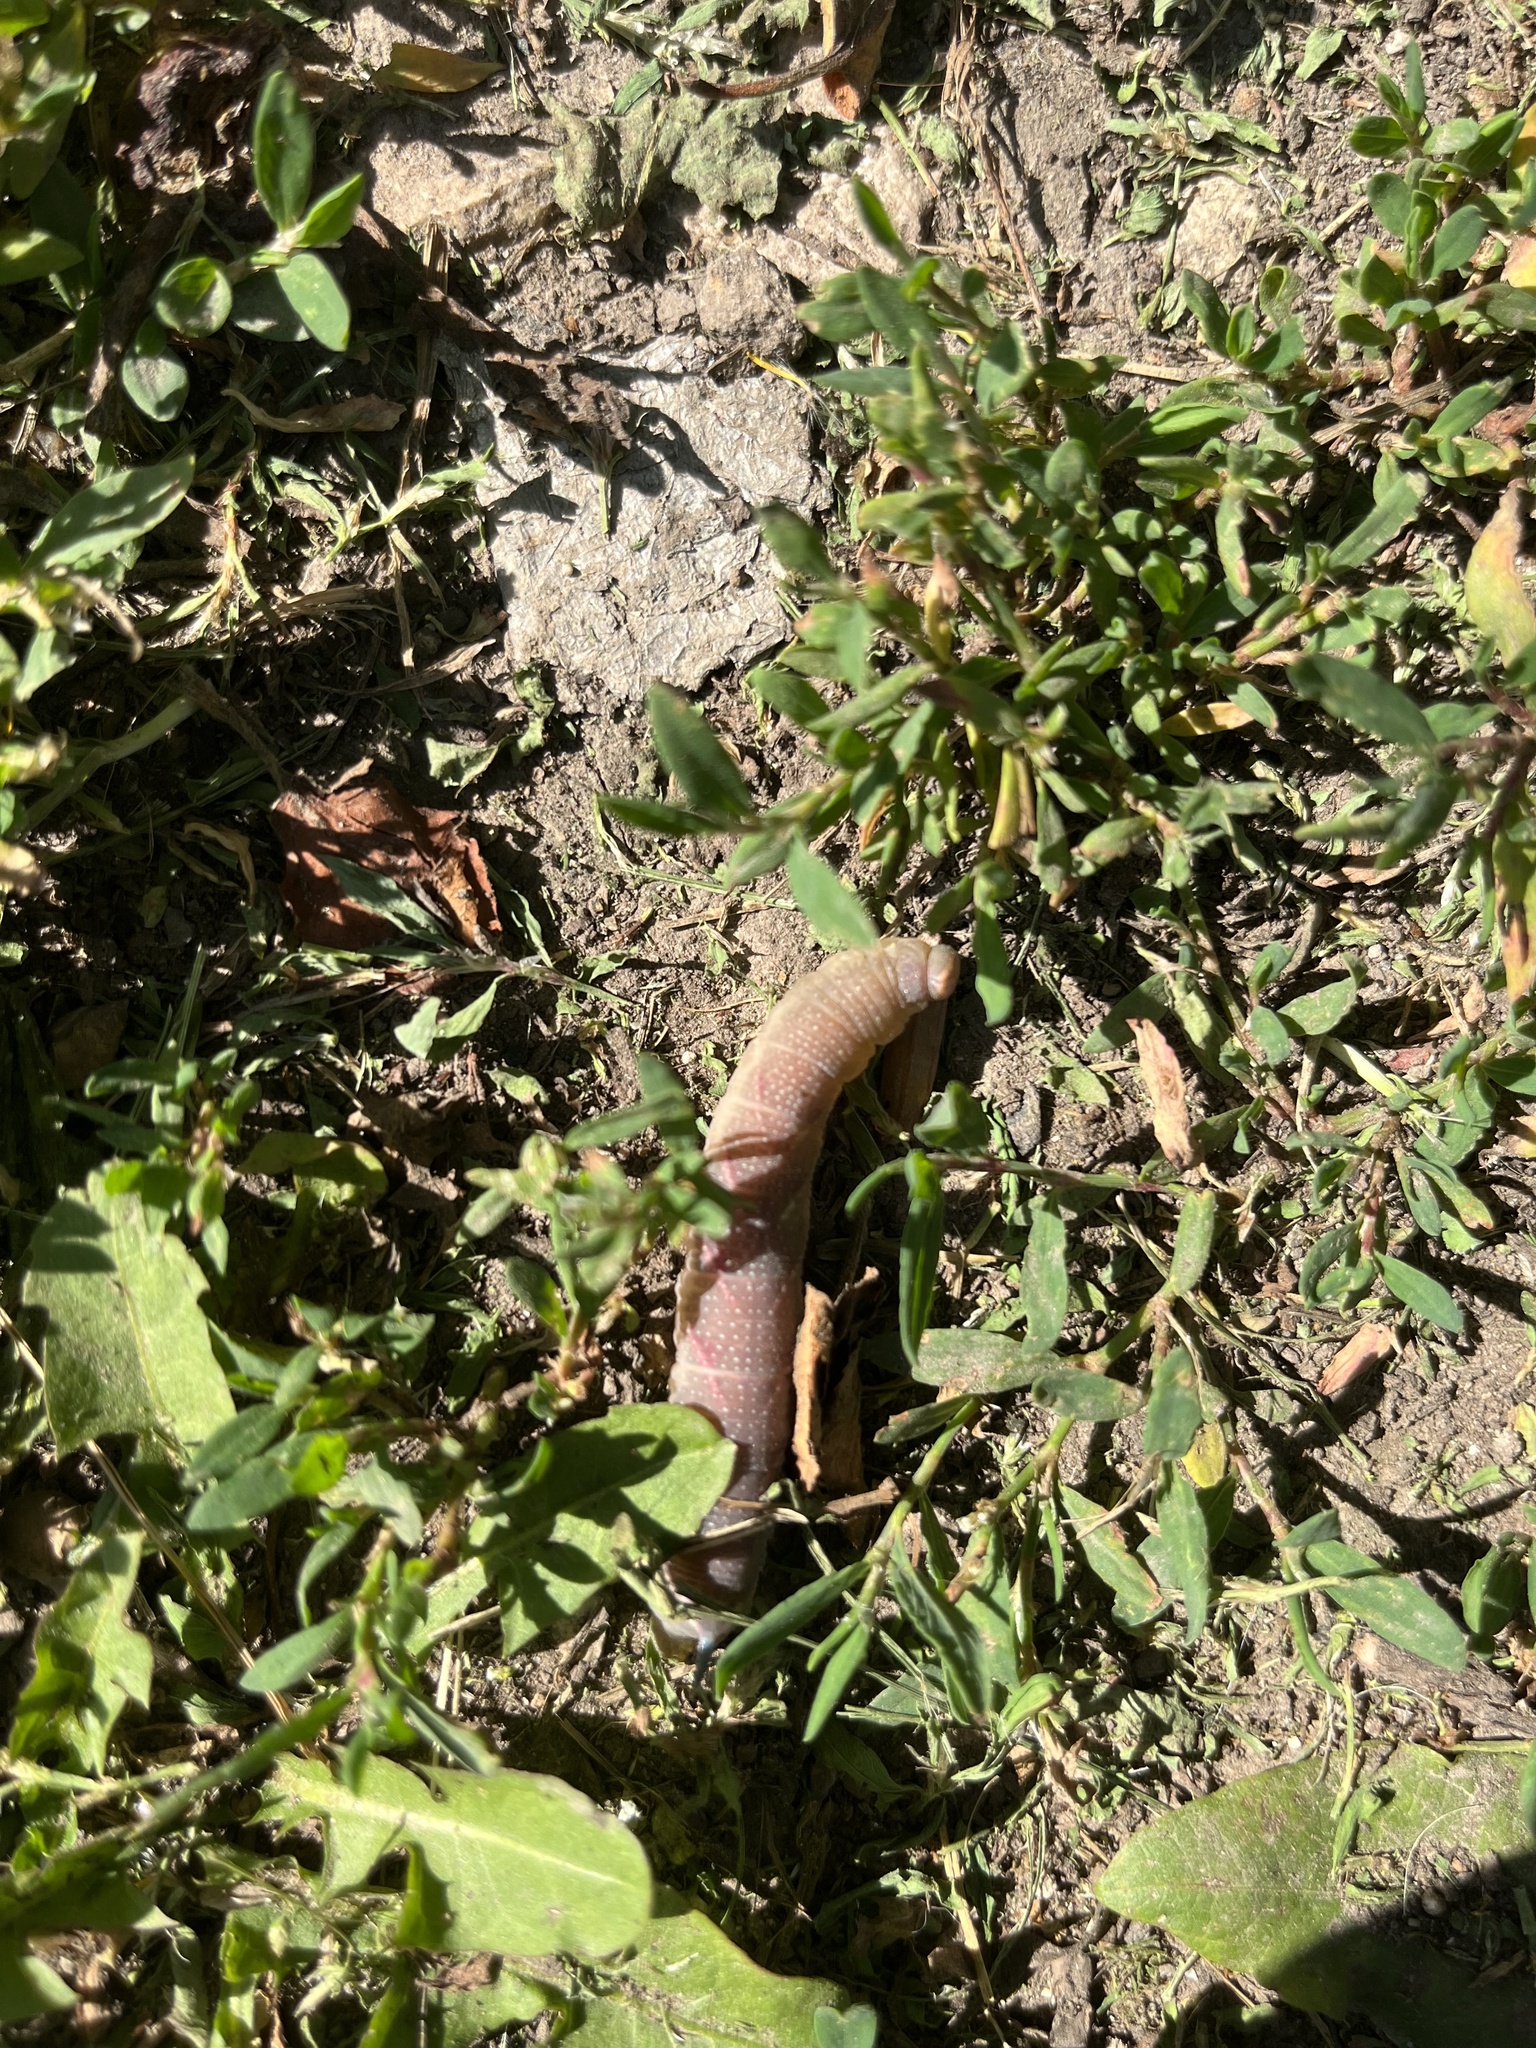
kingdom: Animalia
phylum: Arthropoda
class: Insecta
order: Lepidoptera
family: Sphingidae
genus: Mimas
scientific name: Mimas tiliae
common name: Lime hawk-moth
